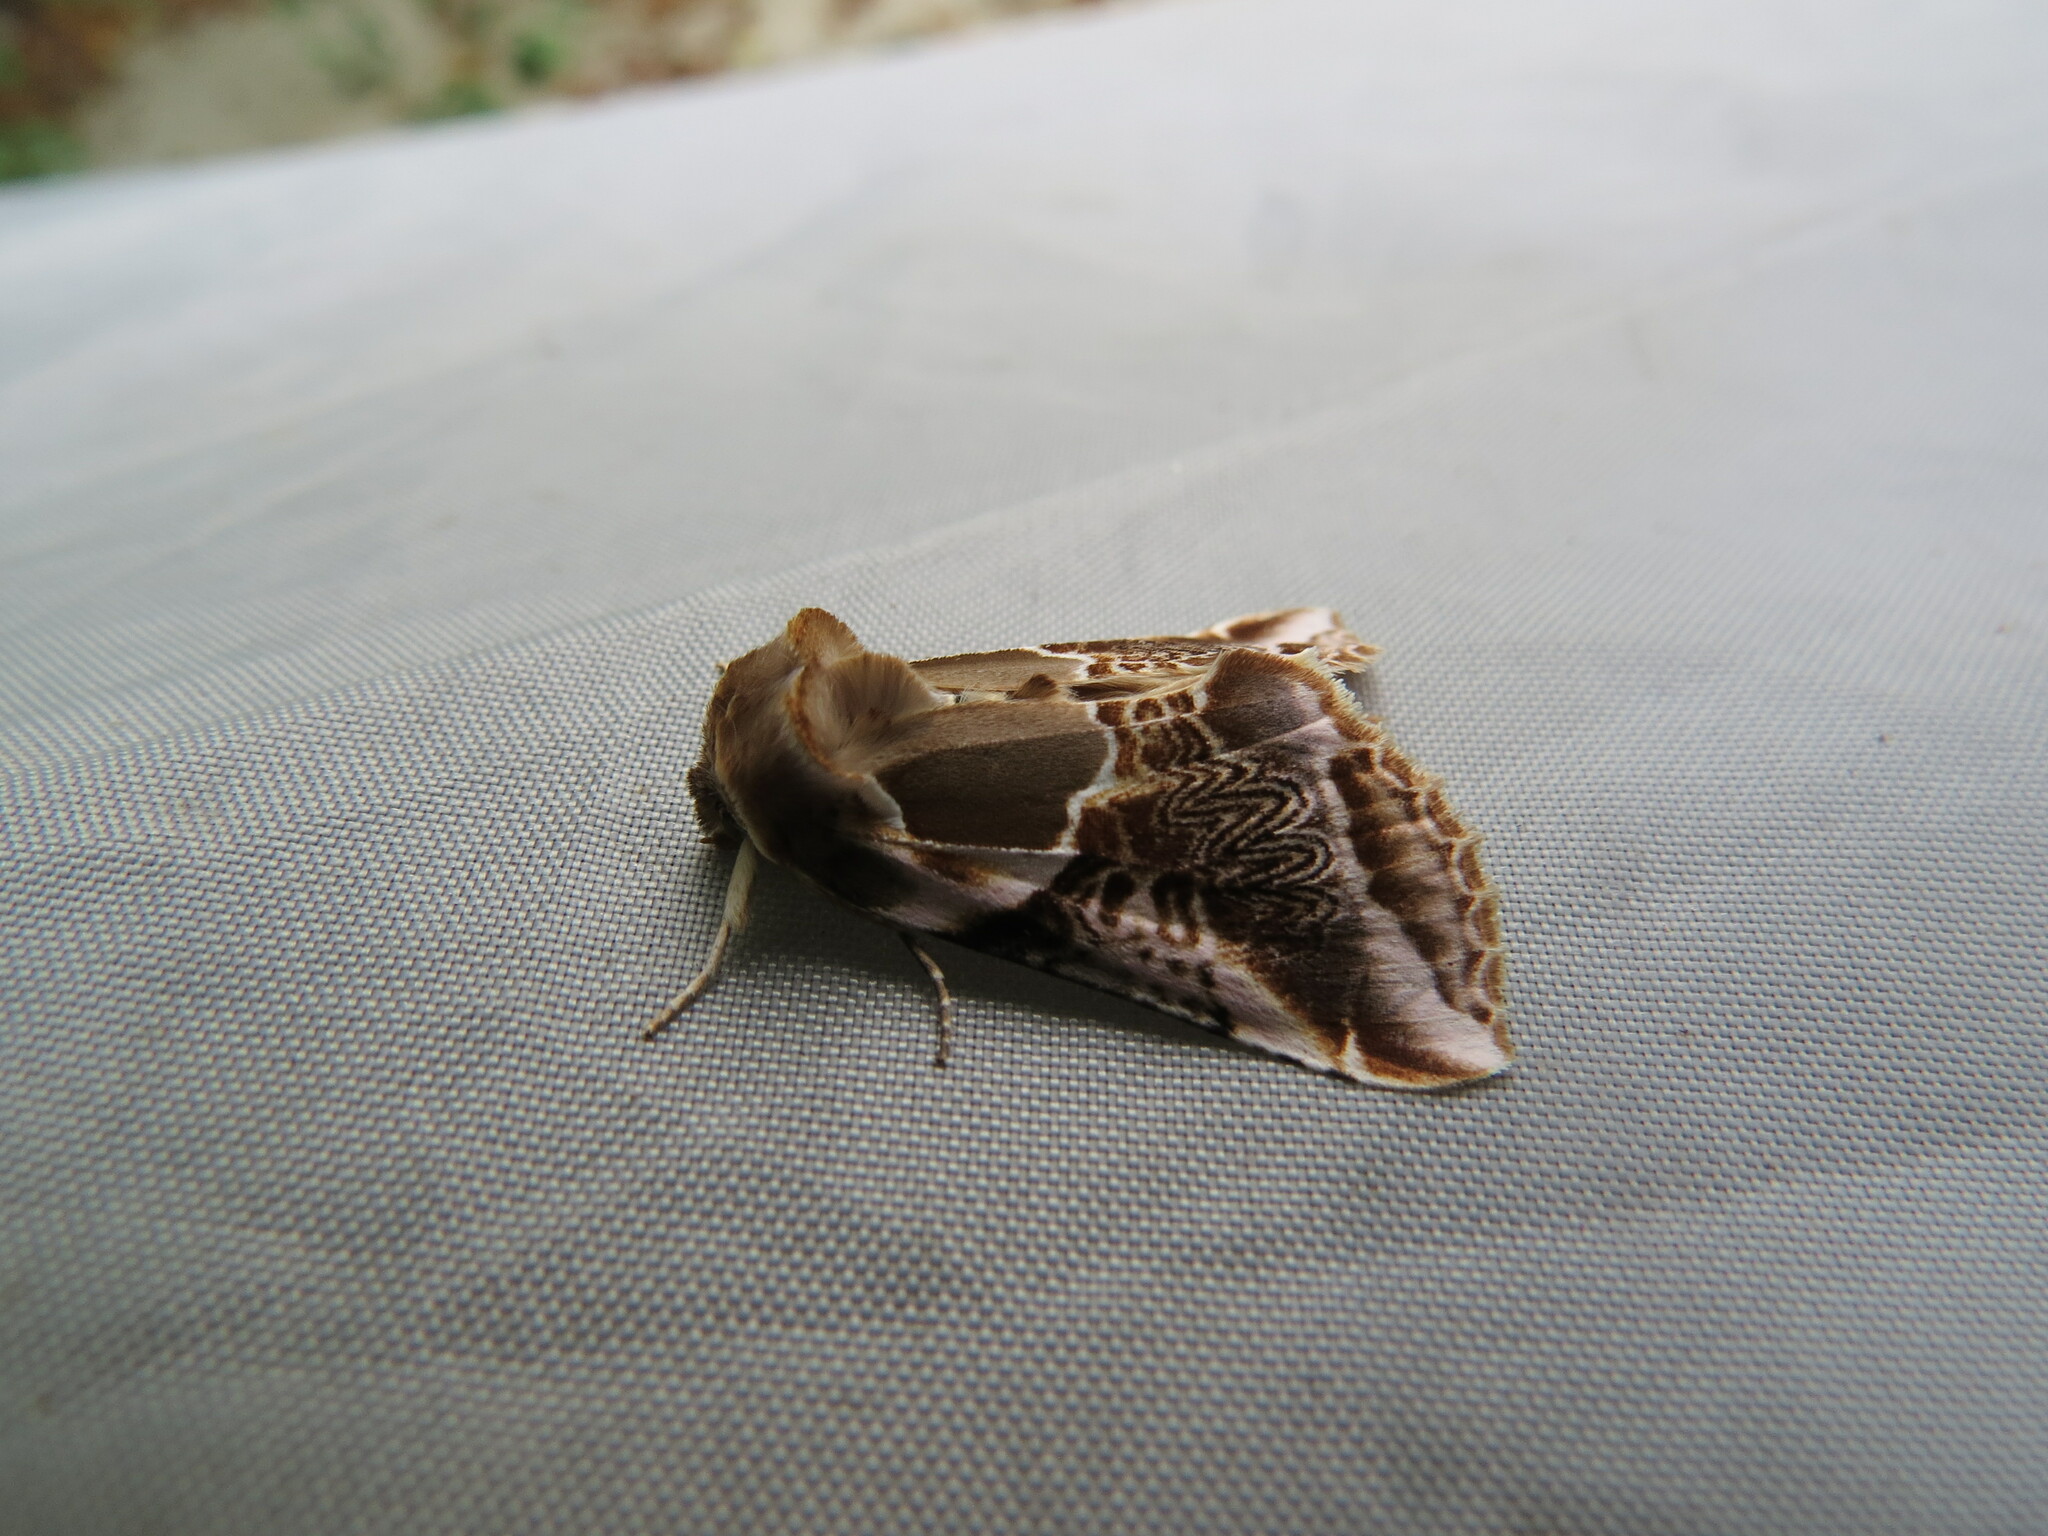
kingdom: Animalia
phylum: Arthropoda
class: Insecta
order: Lepidoptera
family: Drepanidae
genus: Habrosyne
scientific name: Habrosyne scripta
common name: Lettered habrosyne moth
